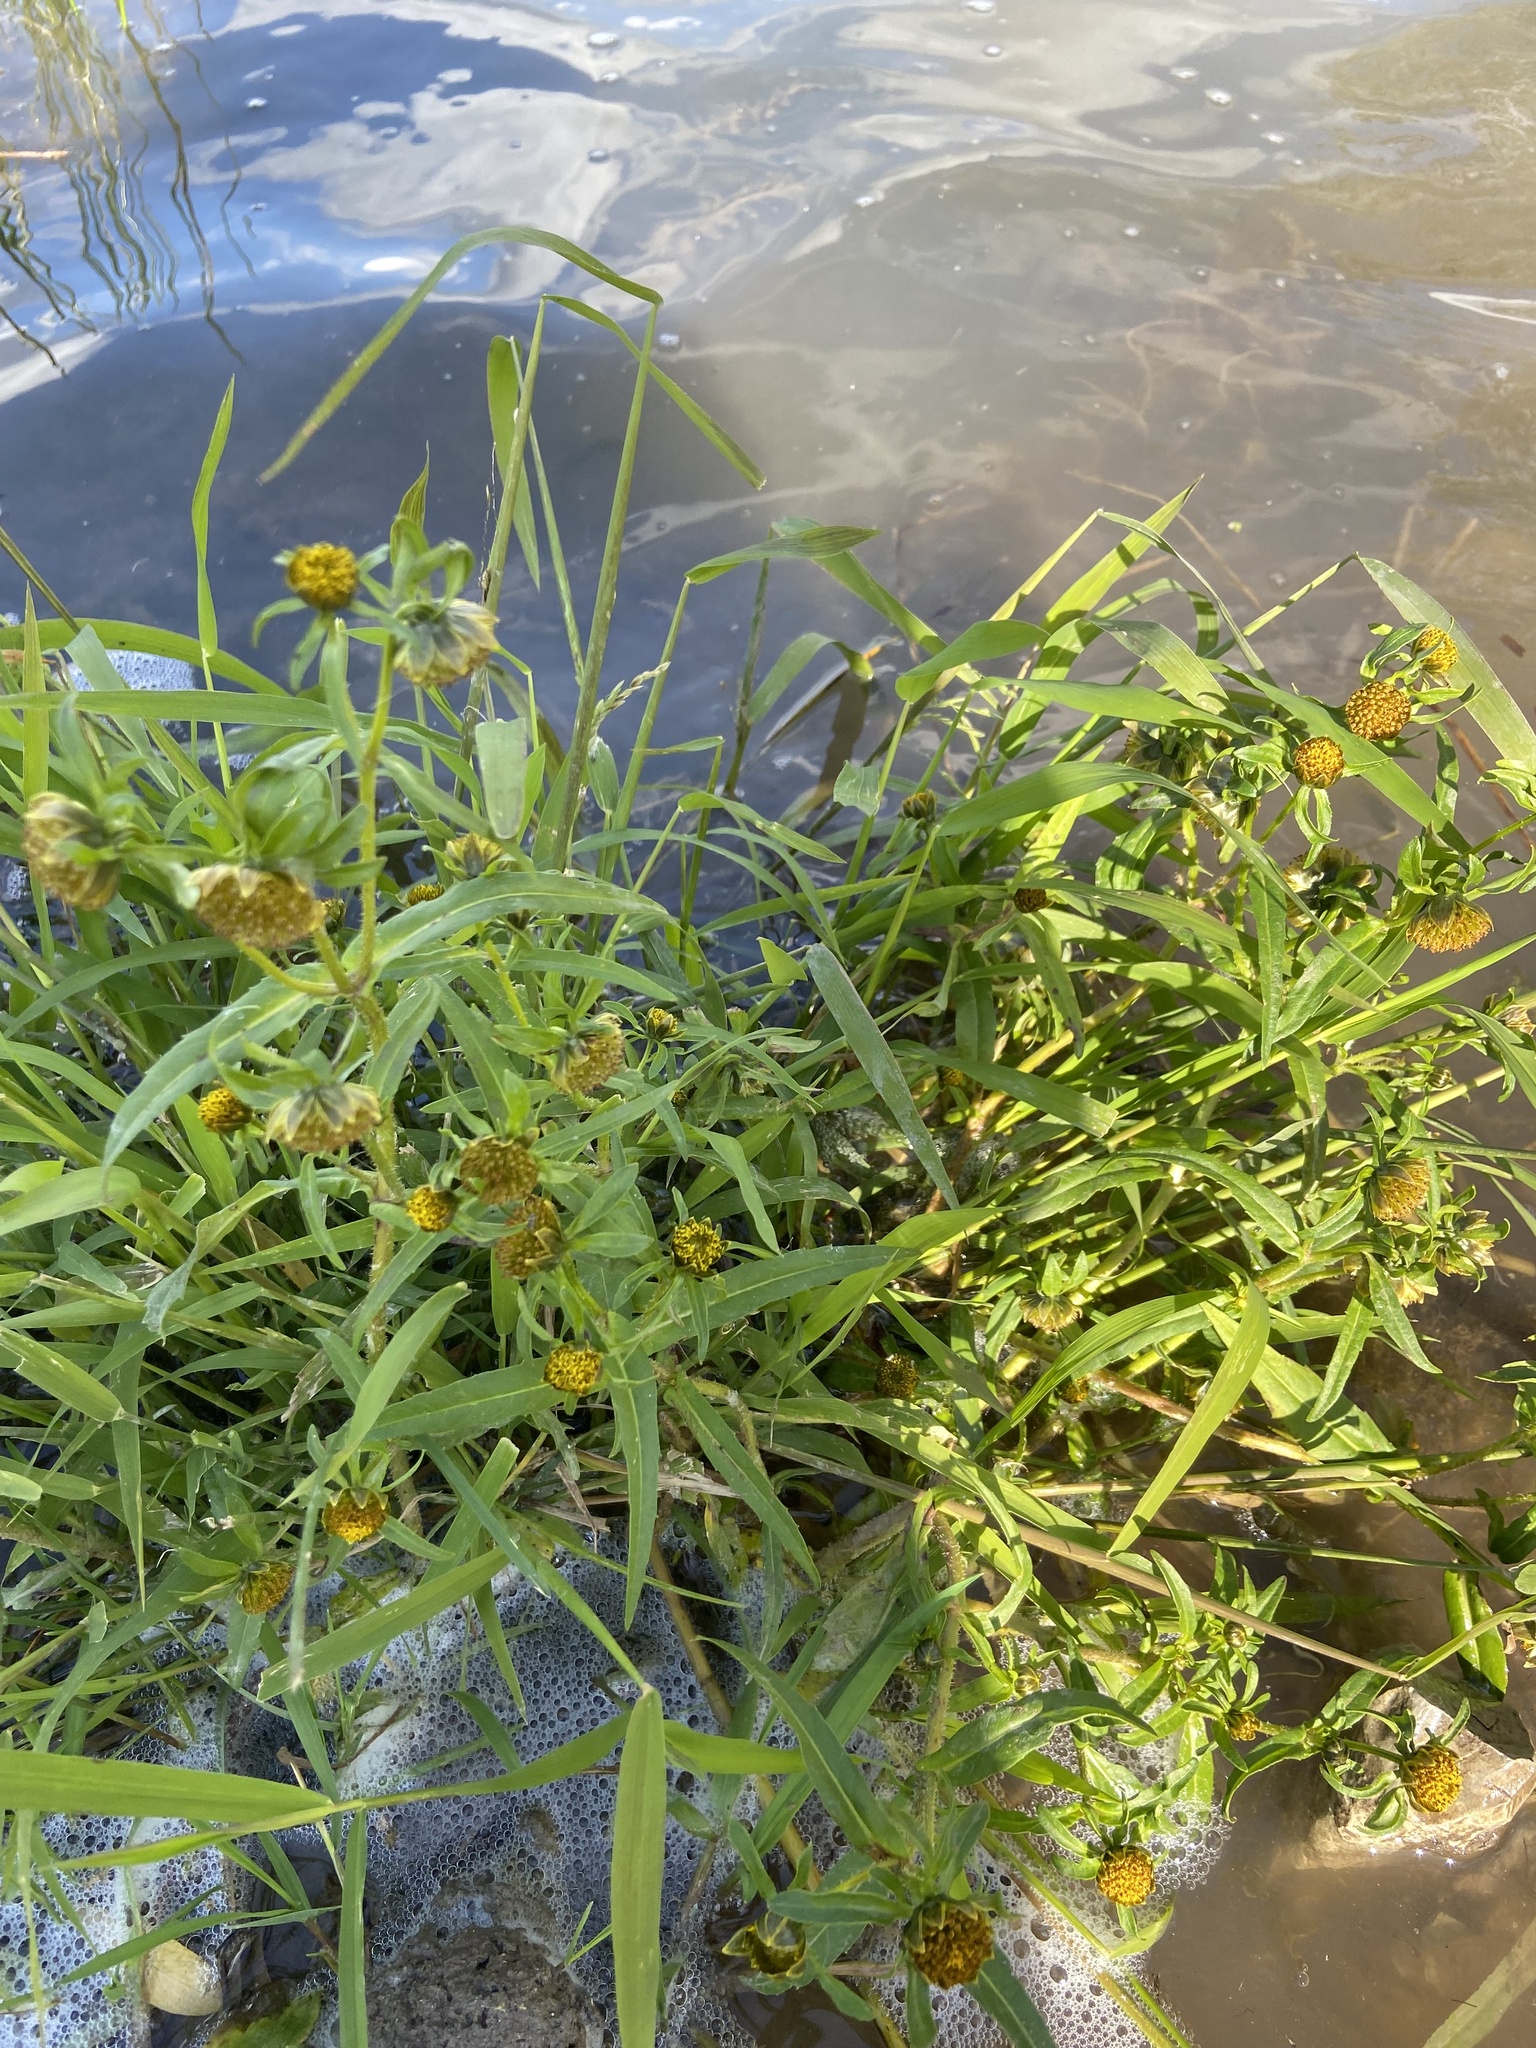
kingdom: Plantae
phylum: Tracheophyta
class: Magnoliopsida
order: Asterales
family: Asteraceae
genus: Bidens
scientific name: Bidens cernua
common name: Nodding bur-marigold
